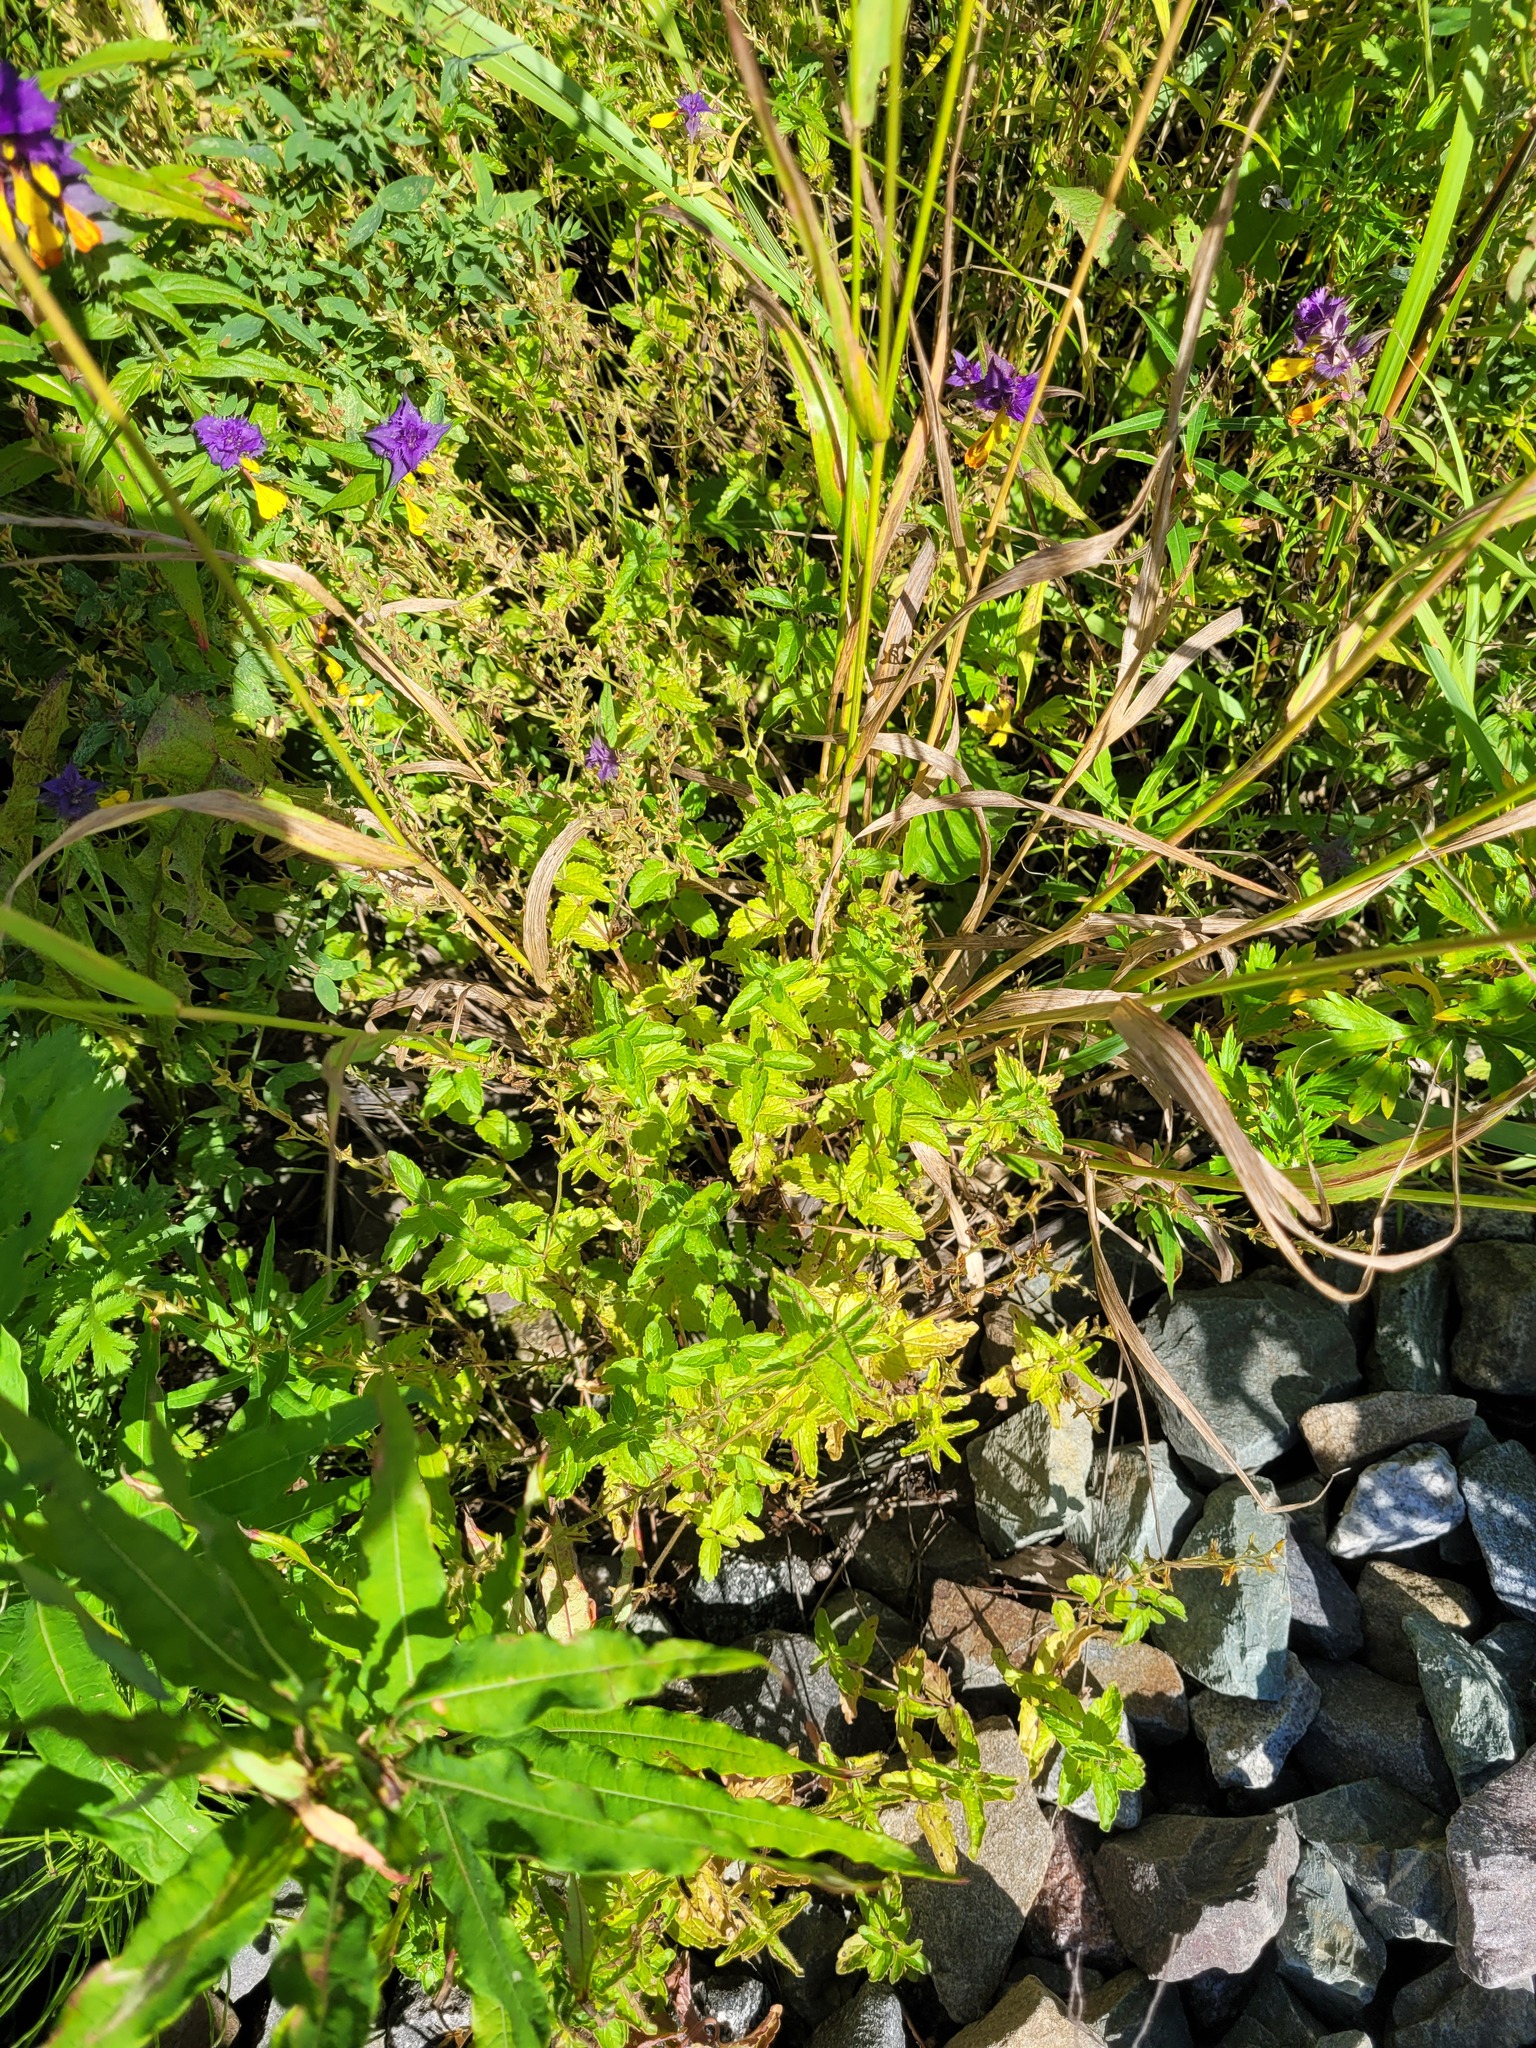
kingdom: Plantae
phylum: Tracheophyta
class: Magnoliopsida
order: Lamiales
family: Plantaginaceae
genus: Veronica
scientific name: Veronica chamaedrys
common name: Germander speedwell
